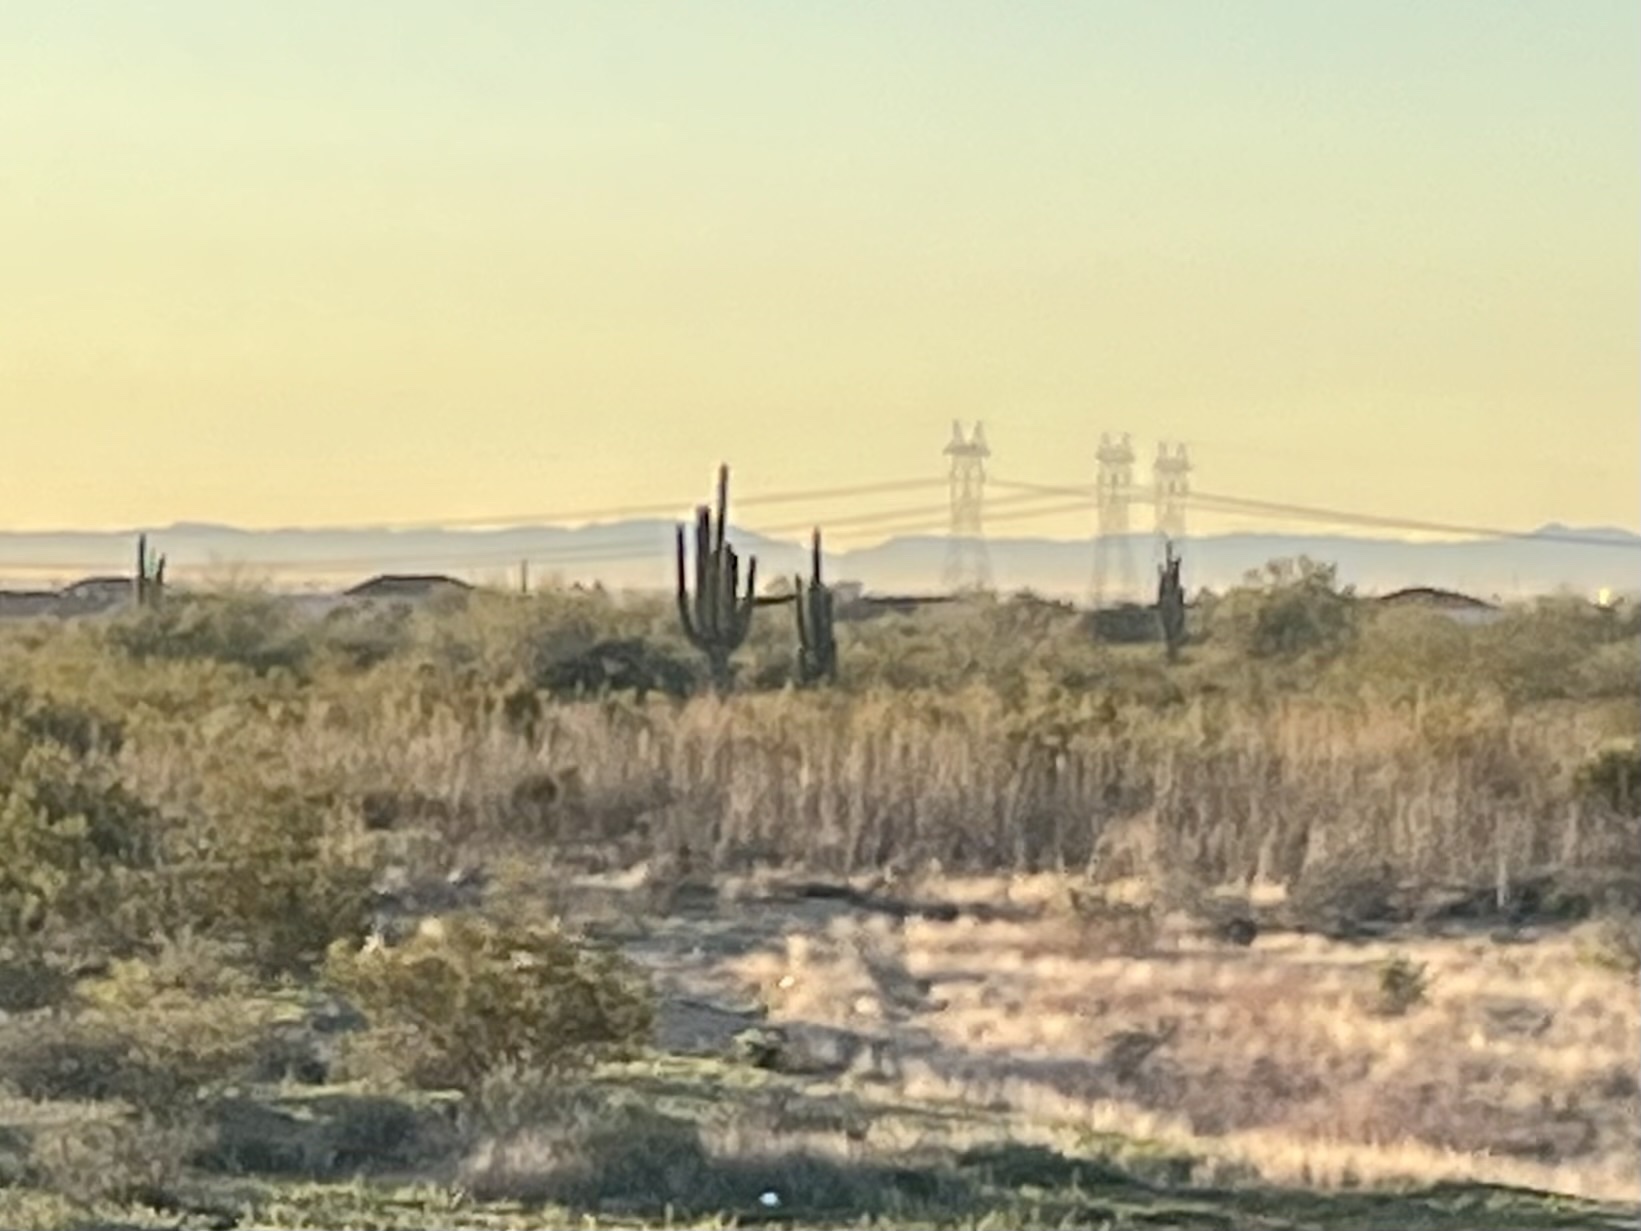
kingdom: Plantae
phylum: Tracheophyta
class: Magnoliopsida
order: Caryophyllales
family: Cactaceae
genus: Carnegiea
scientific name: Carnegiea gigantea
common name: Saguaro
